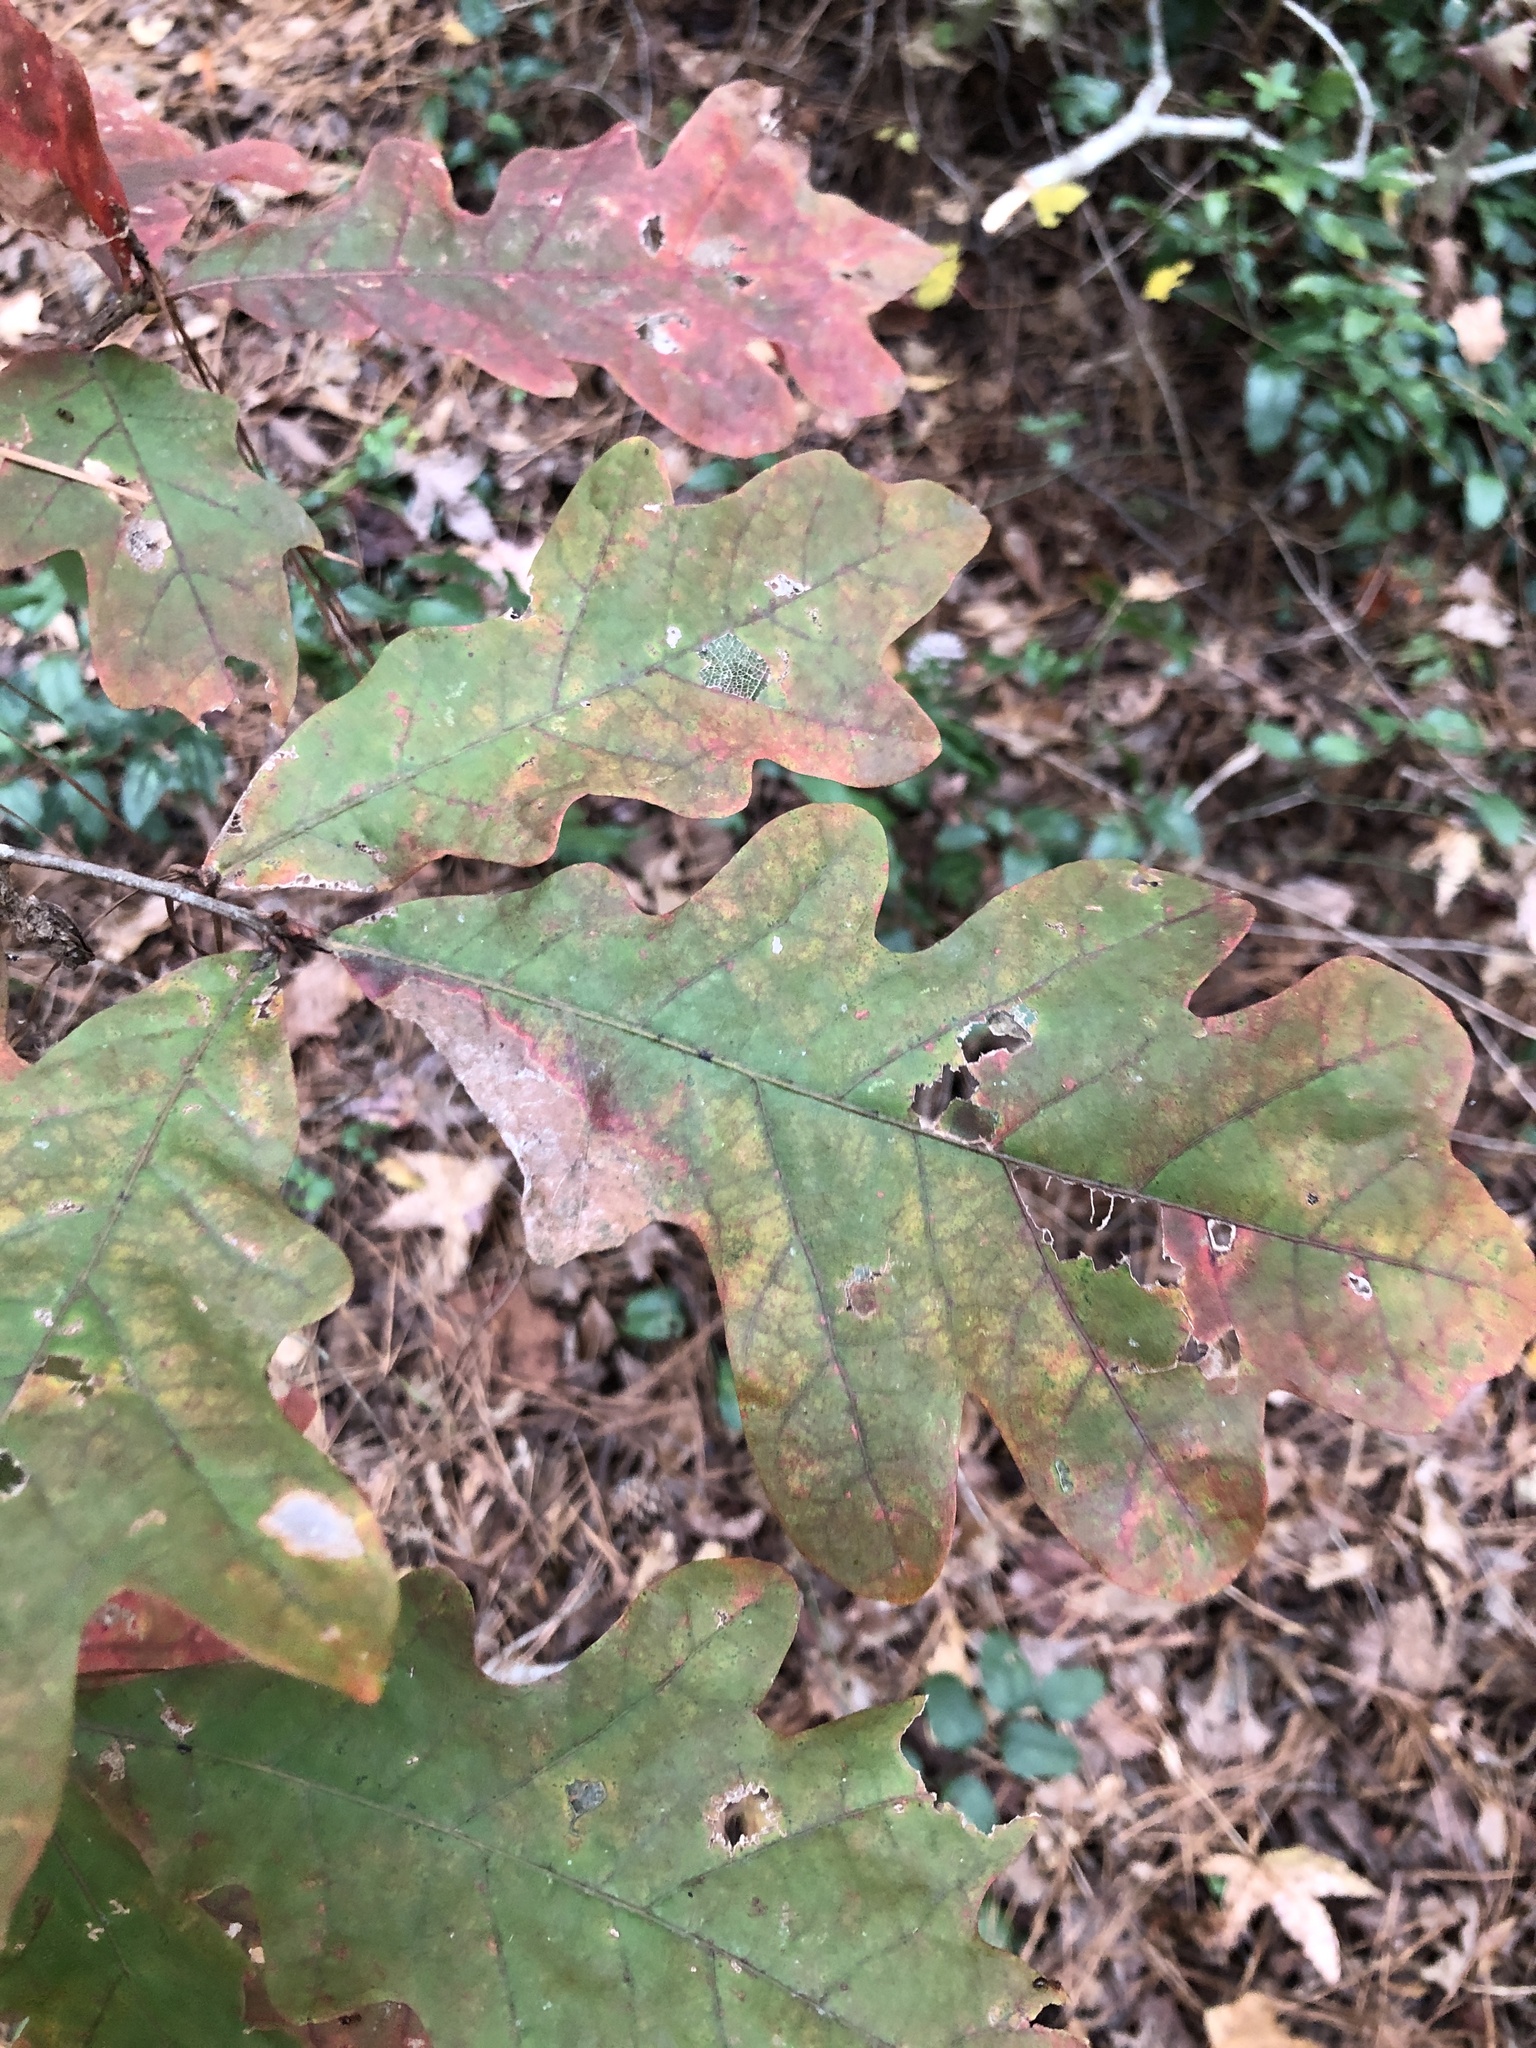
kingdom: Plantae
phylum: Tracheophyta
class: Magnoliopsida
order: Fagales
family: Fagaceae
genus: Quercus
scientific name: Quercus alba
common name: White oak
